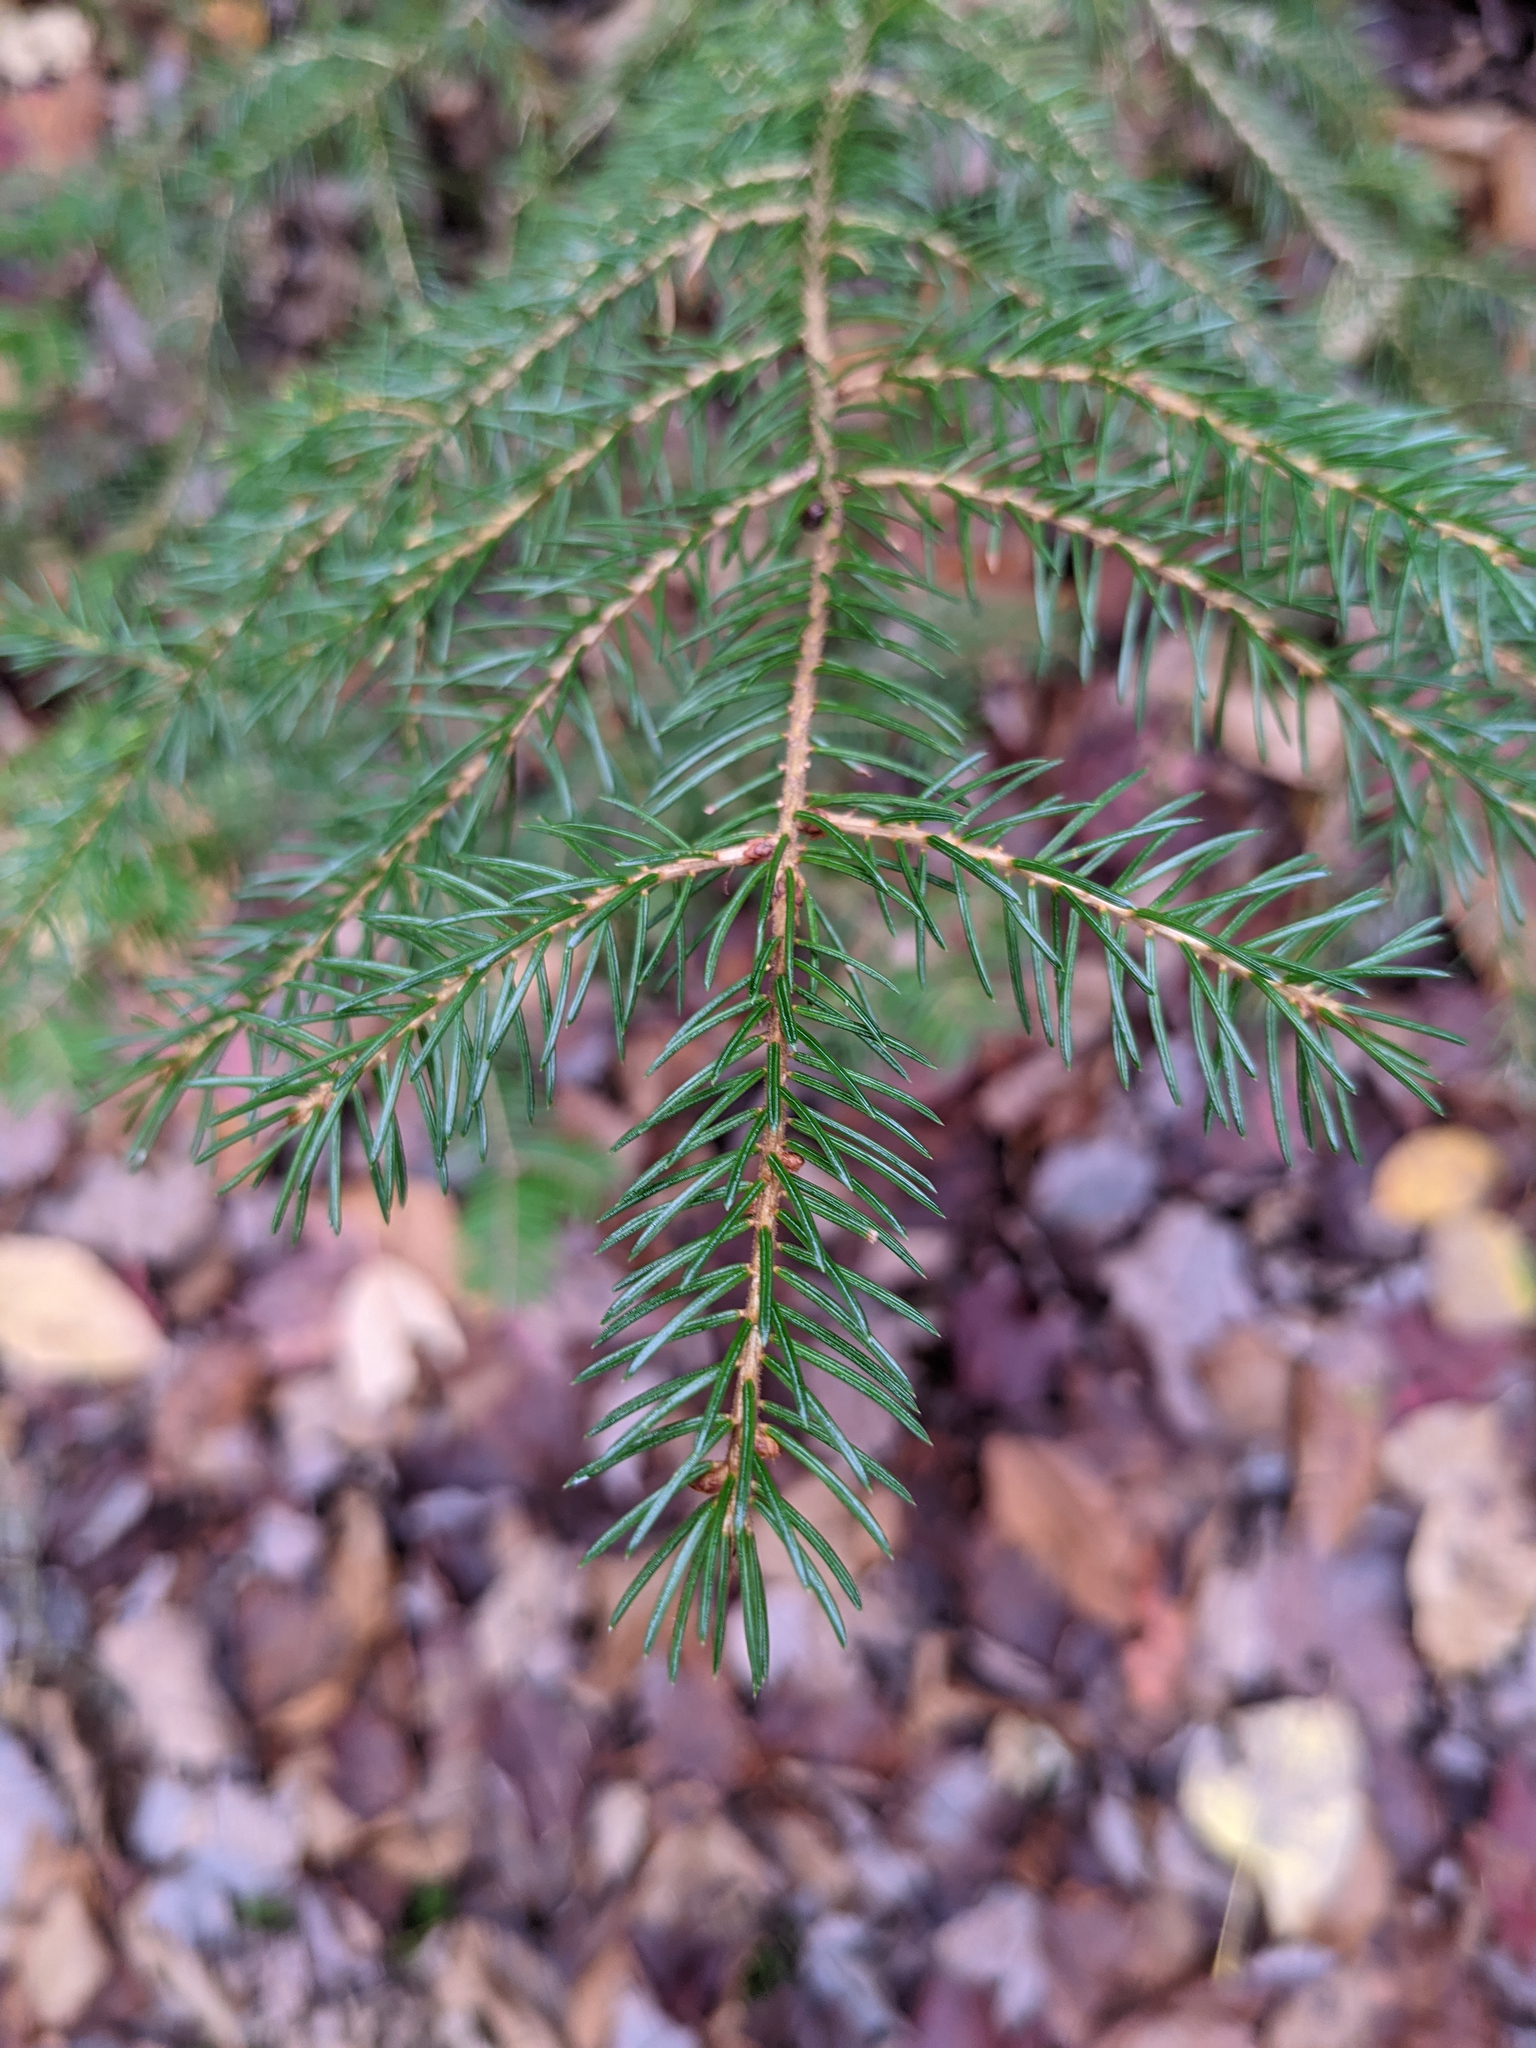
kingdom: Plantae
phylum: Tracheophyta
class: Pinopsida
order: Pinales
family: Pinaceae
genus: Picea
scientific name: Picea rubens
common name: Red spruce
